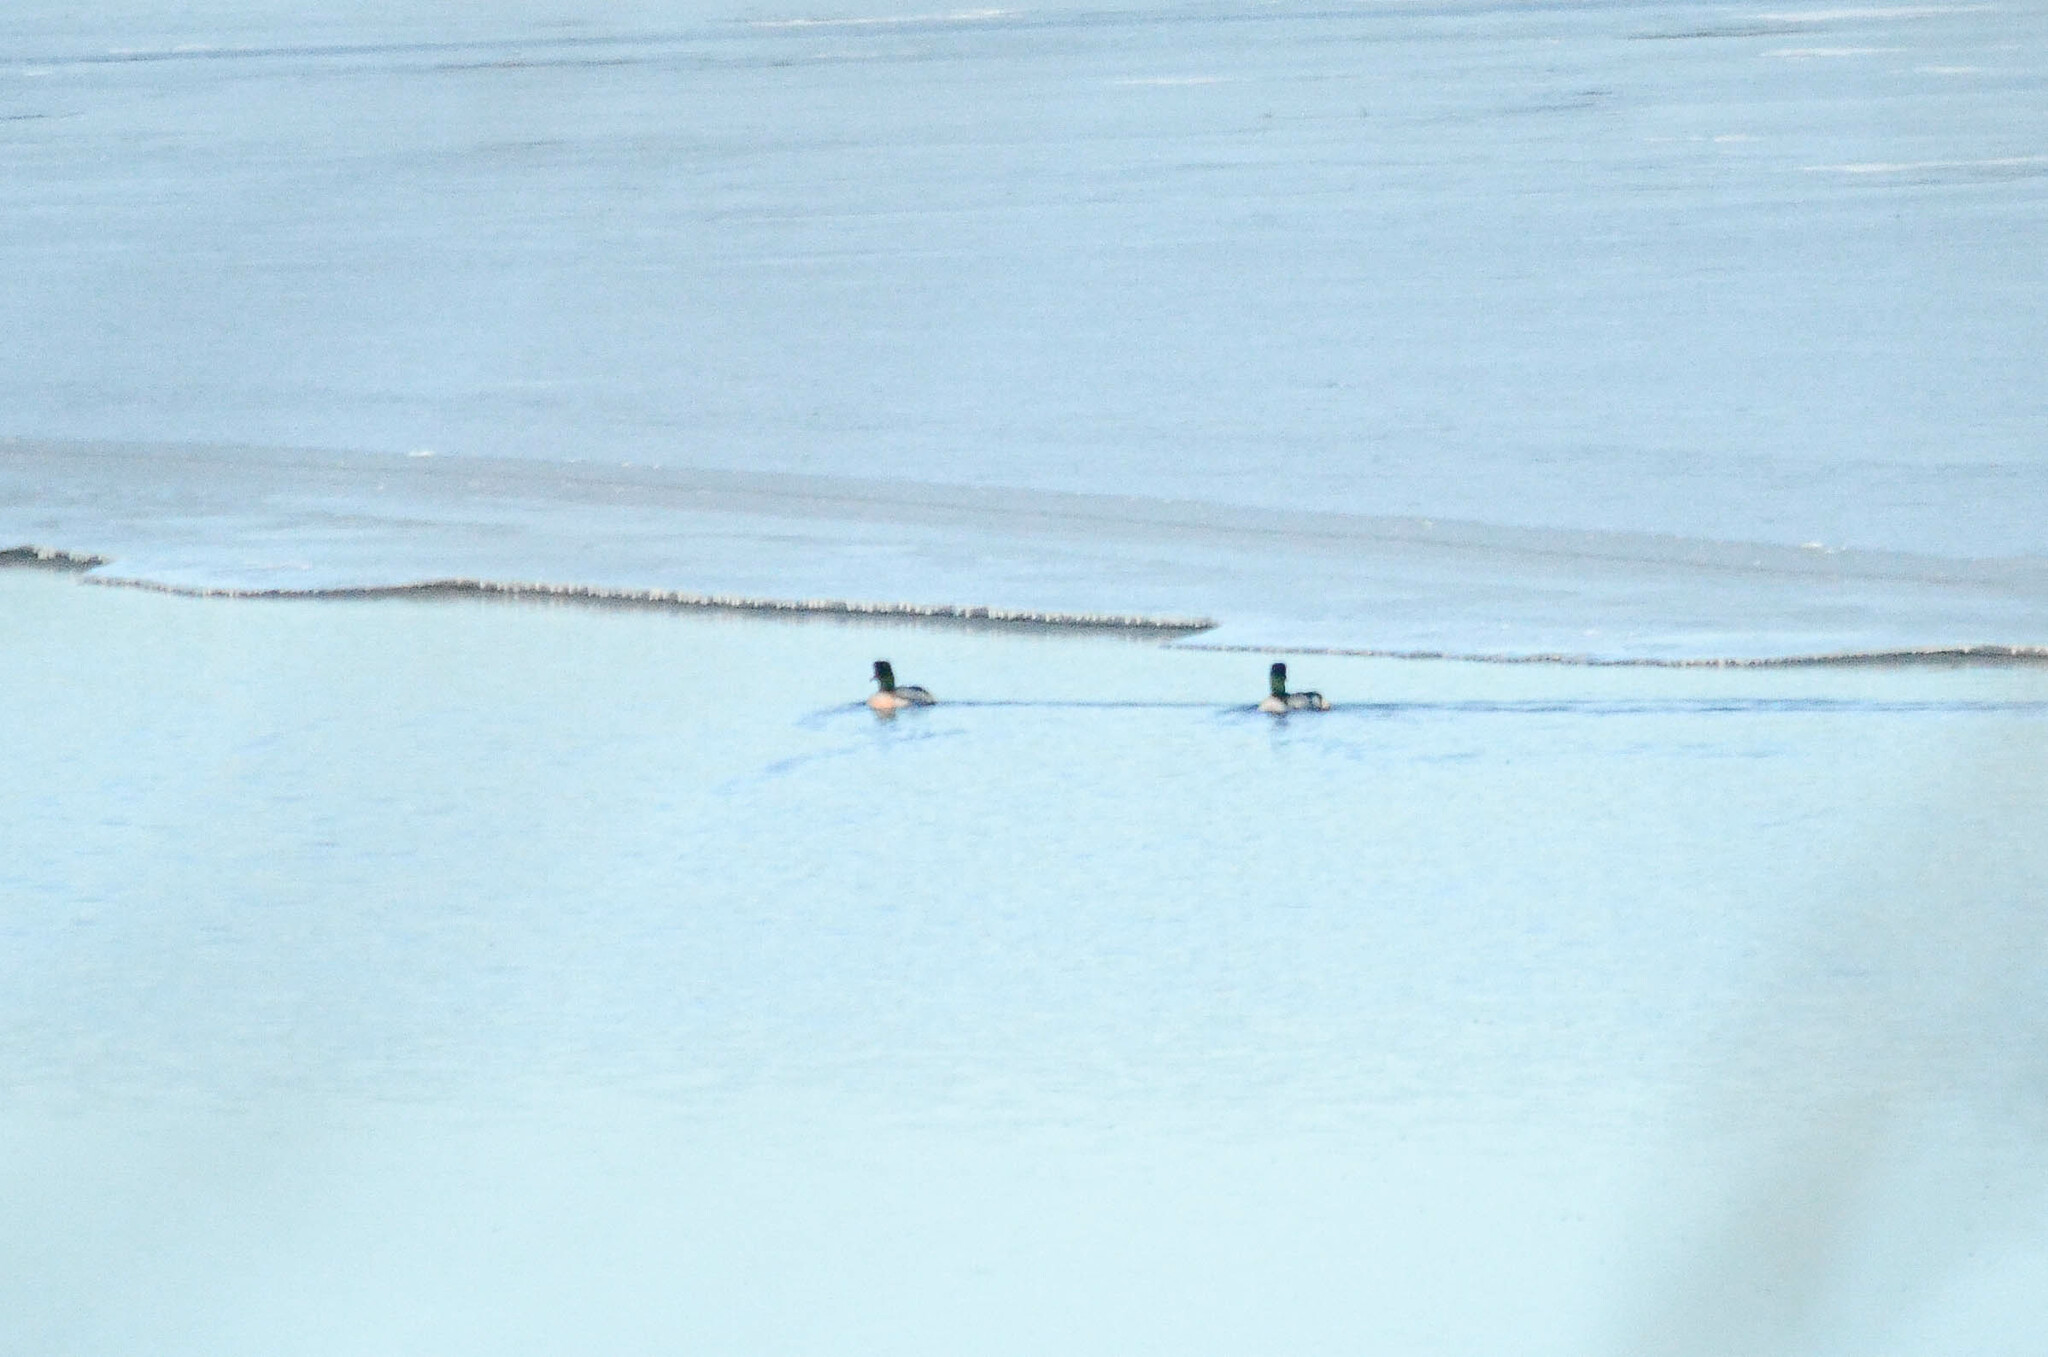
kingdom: Animalia
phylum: Chordata
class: Aves
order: Anseriformes
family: Anatidae
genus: Mergus
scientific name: Mergus merganser
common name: Common merganser
